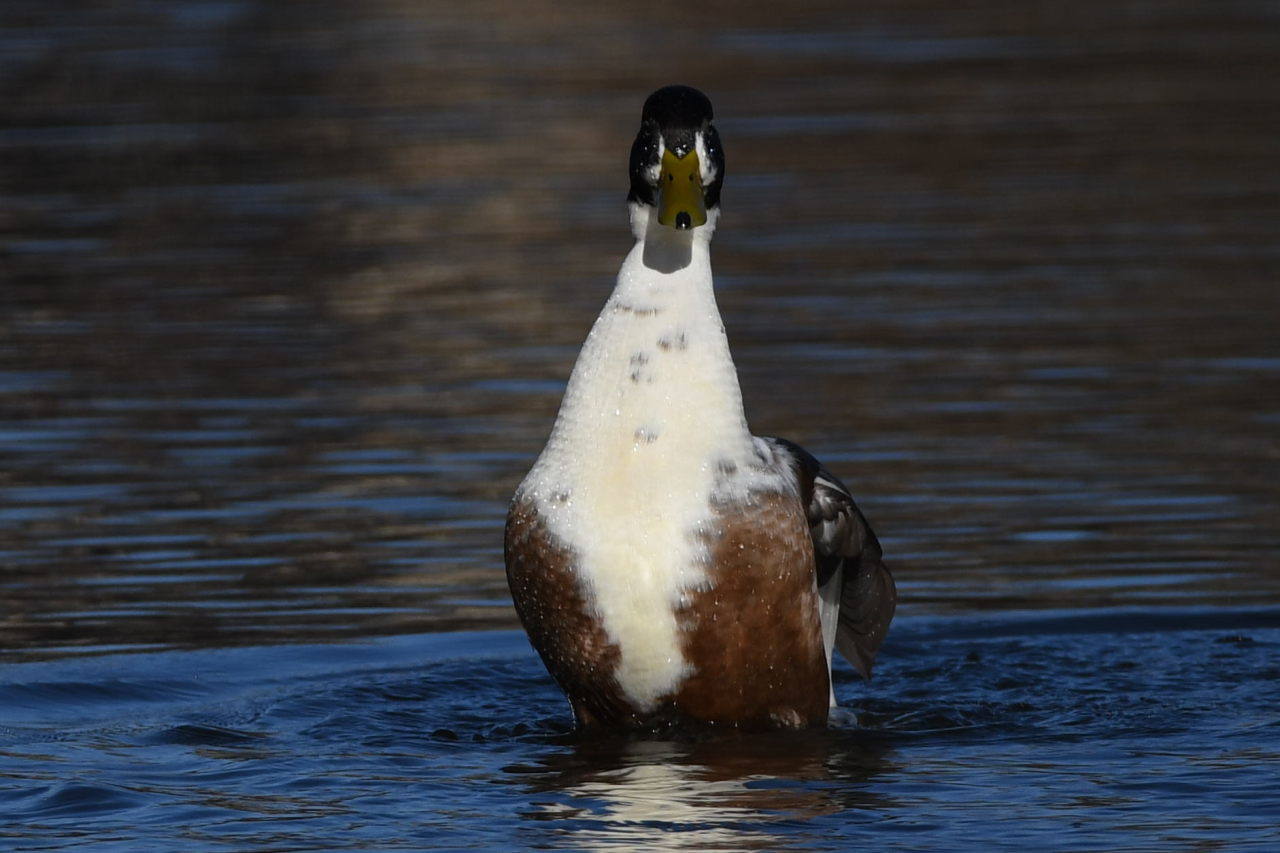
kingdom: Animalia
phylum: Chordata
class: Aves
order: Anseriformes
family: Anatidae
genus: Anas
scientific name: Anas platyrhynchos
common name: Mallard
